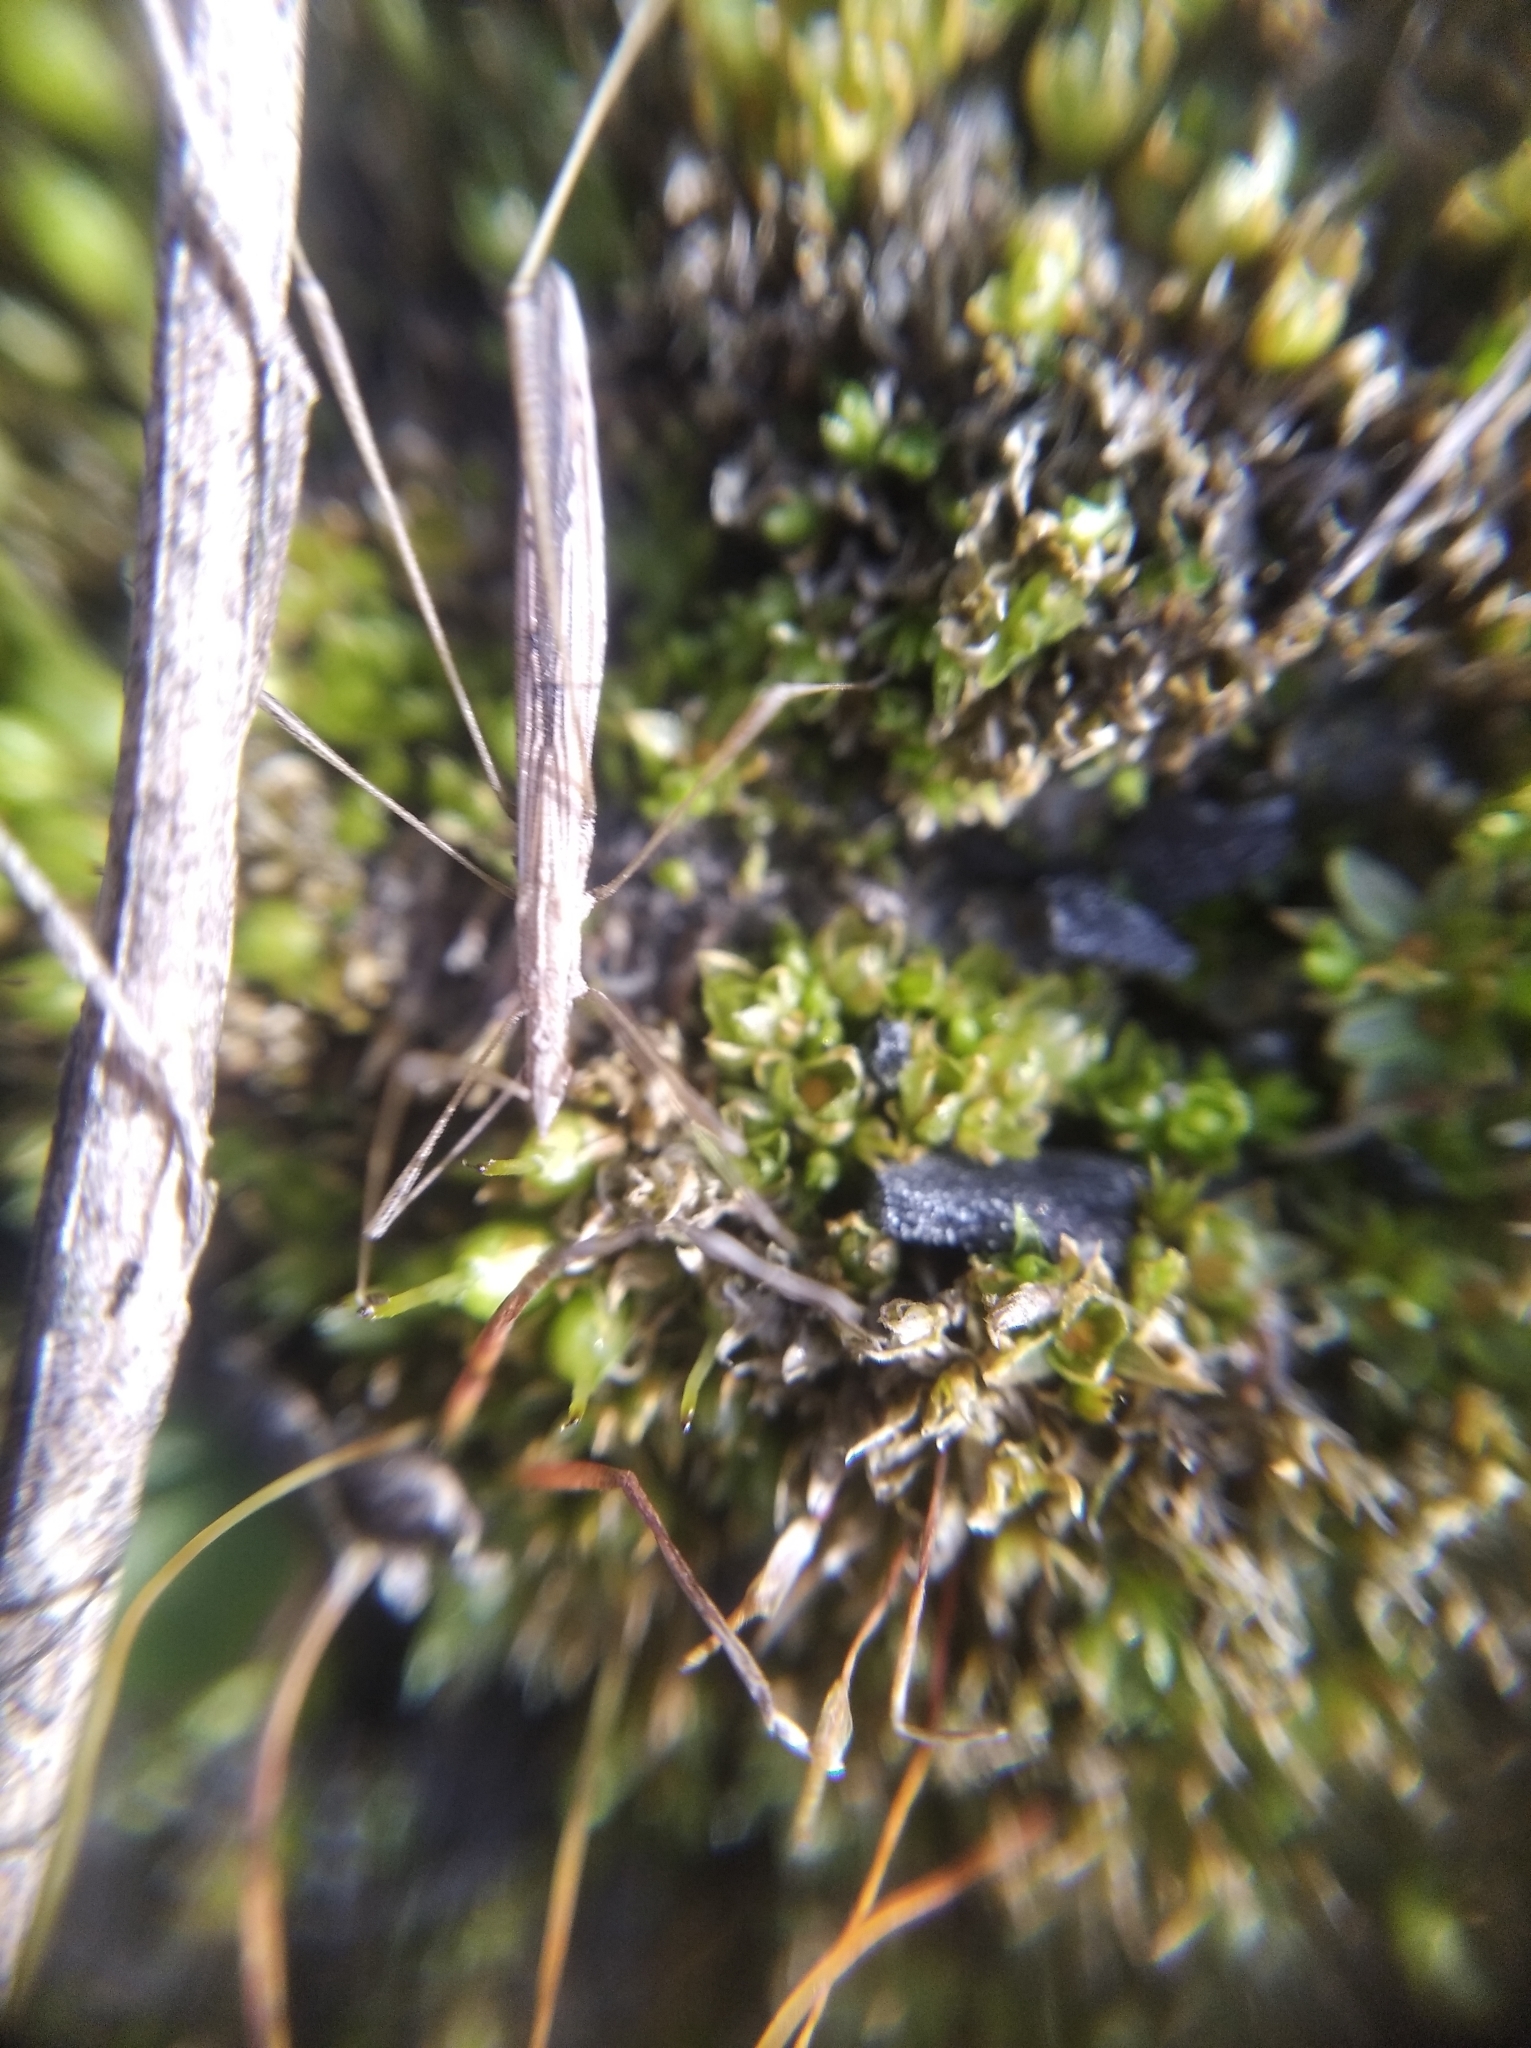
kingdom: Animalia
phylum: Arthropoda
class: Insecta
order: Hemiptera
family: Berytidae
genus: Neides
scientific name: Neides tipularius
